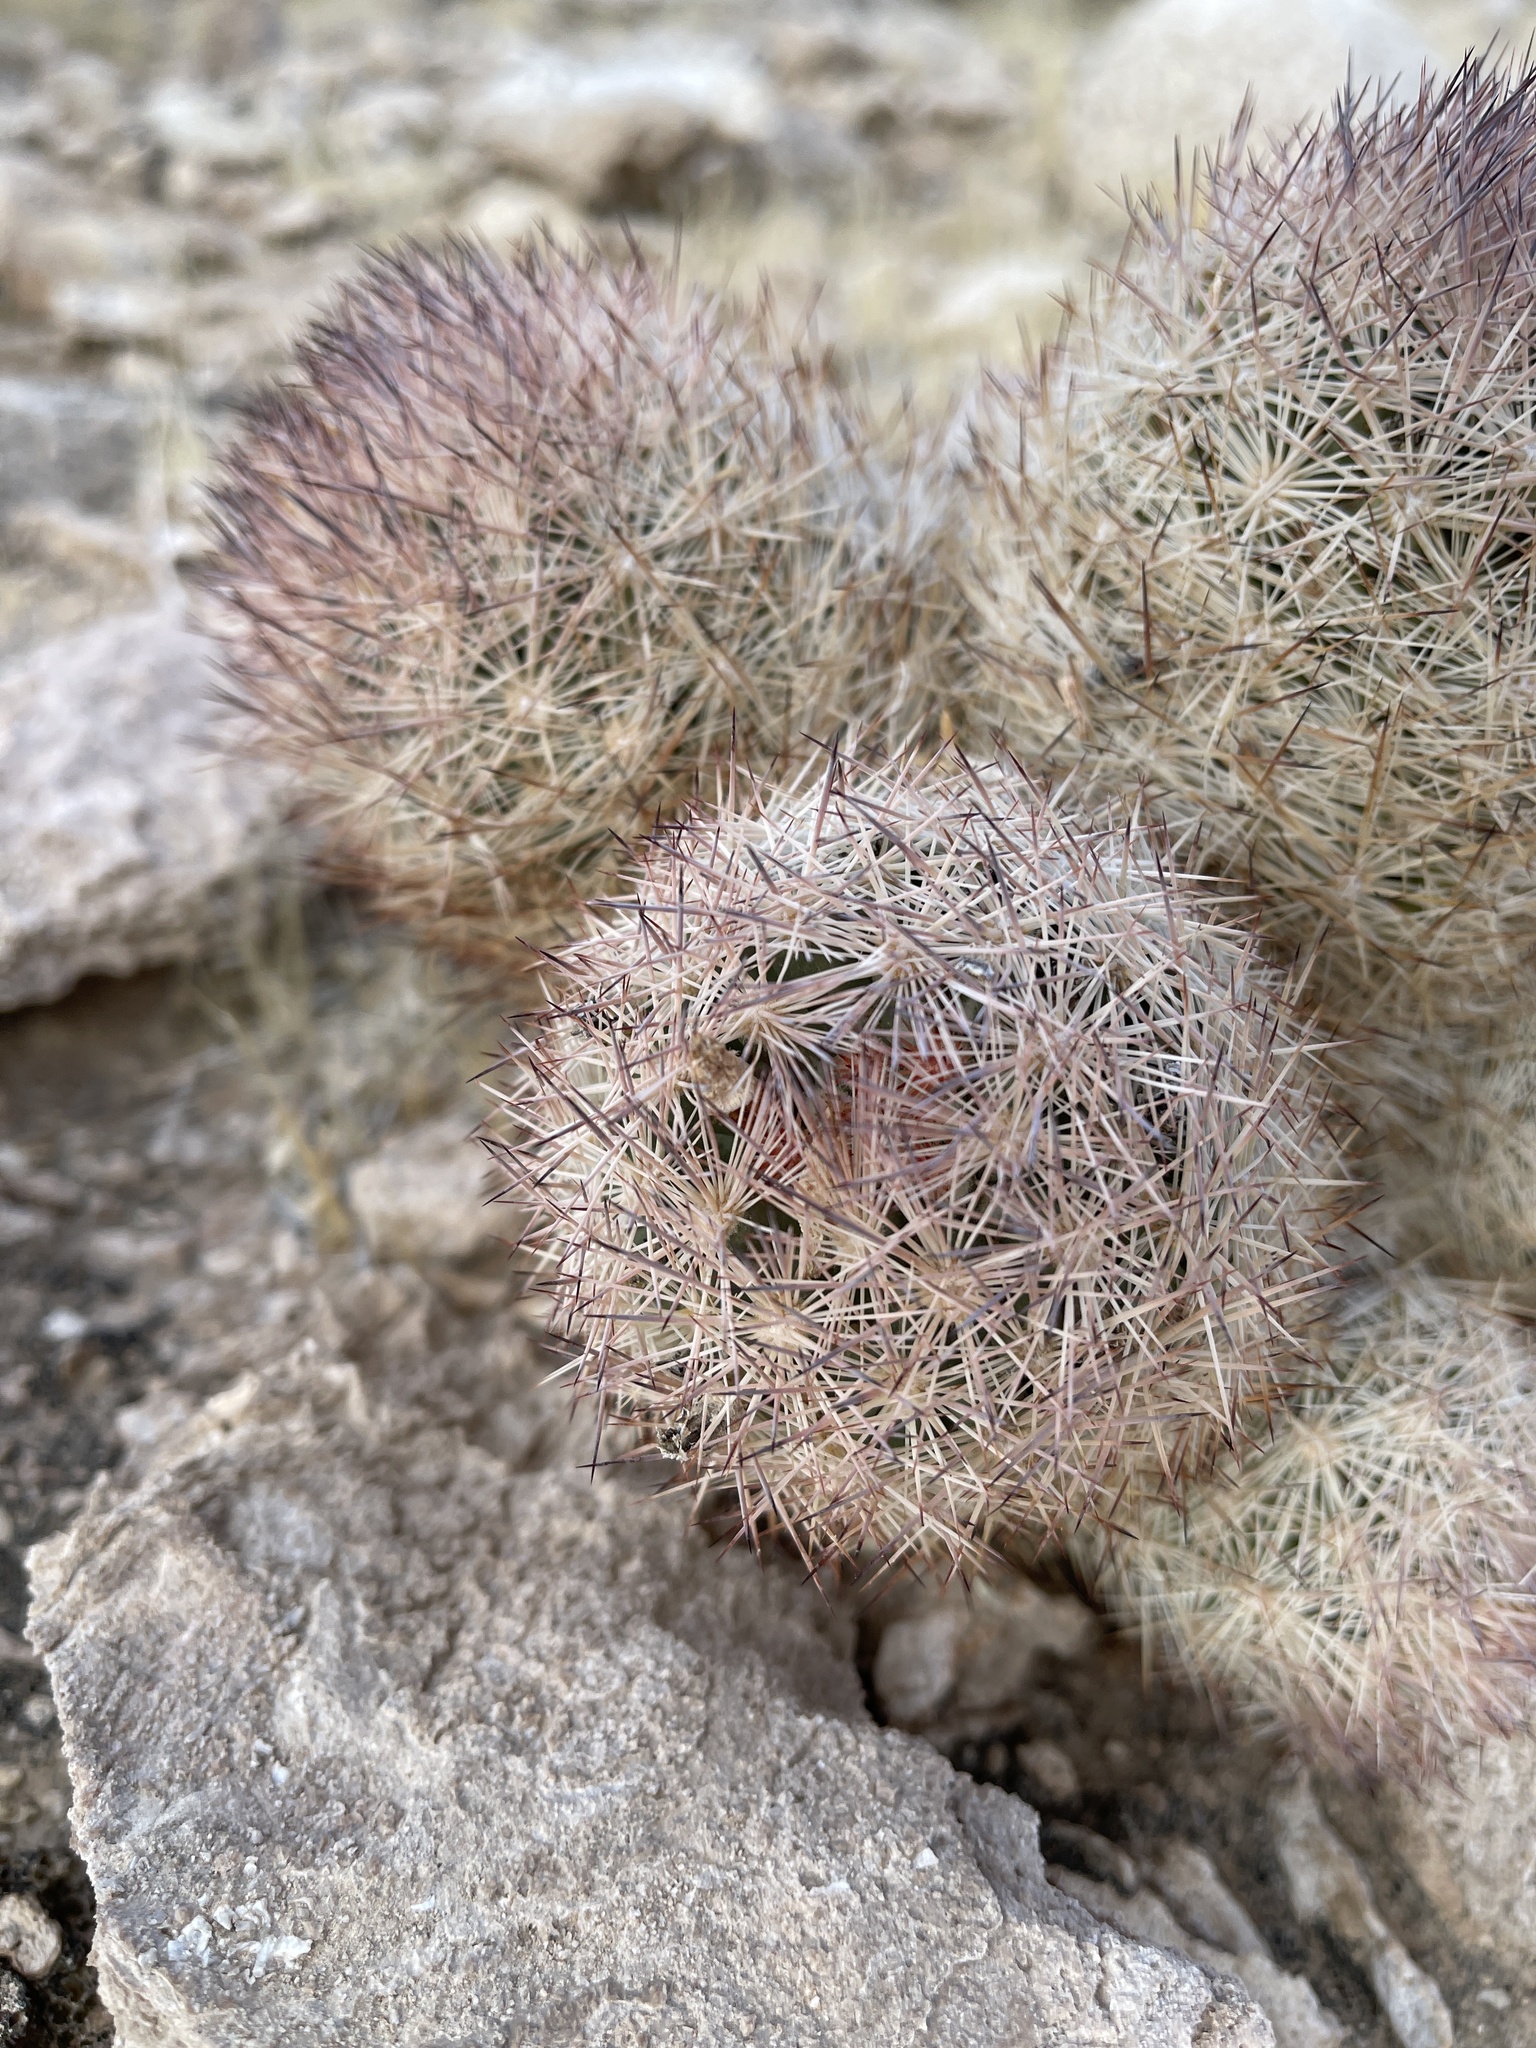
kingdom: Plantae
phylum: Tracheophyta
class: Magnoliopsida
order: Caryophyllales
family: Cactaceae
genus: Pelecyphora
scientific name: Pelecyphora vivipara
